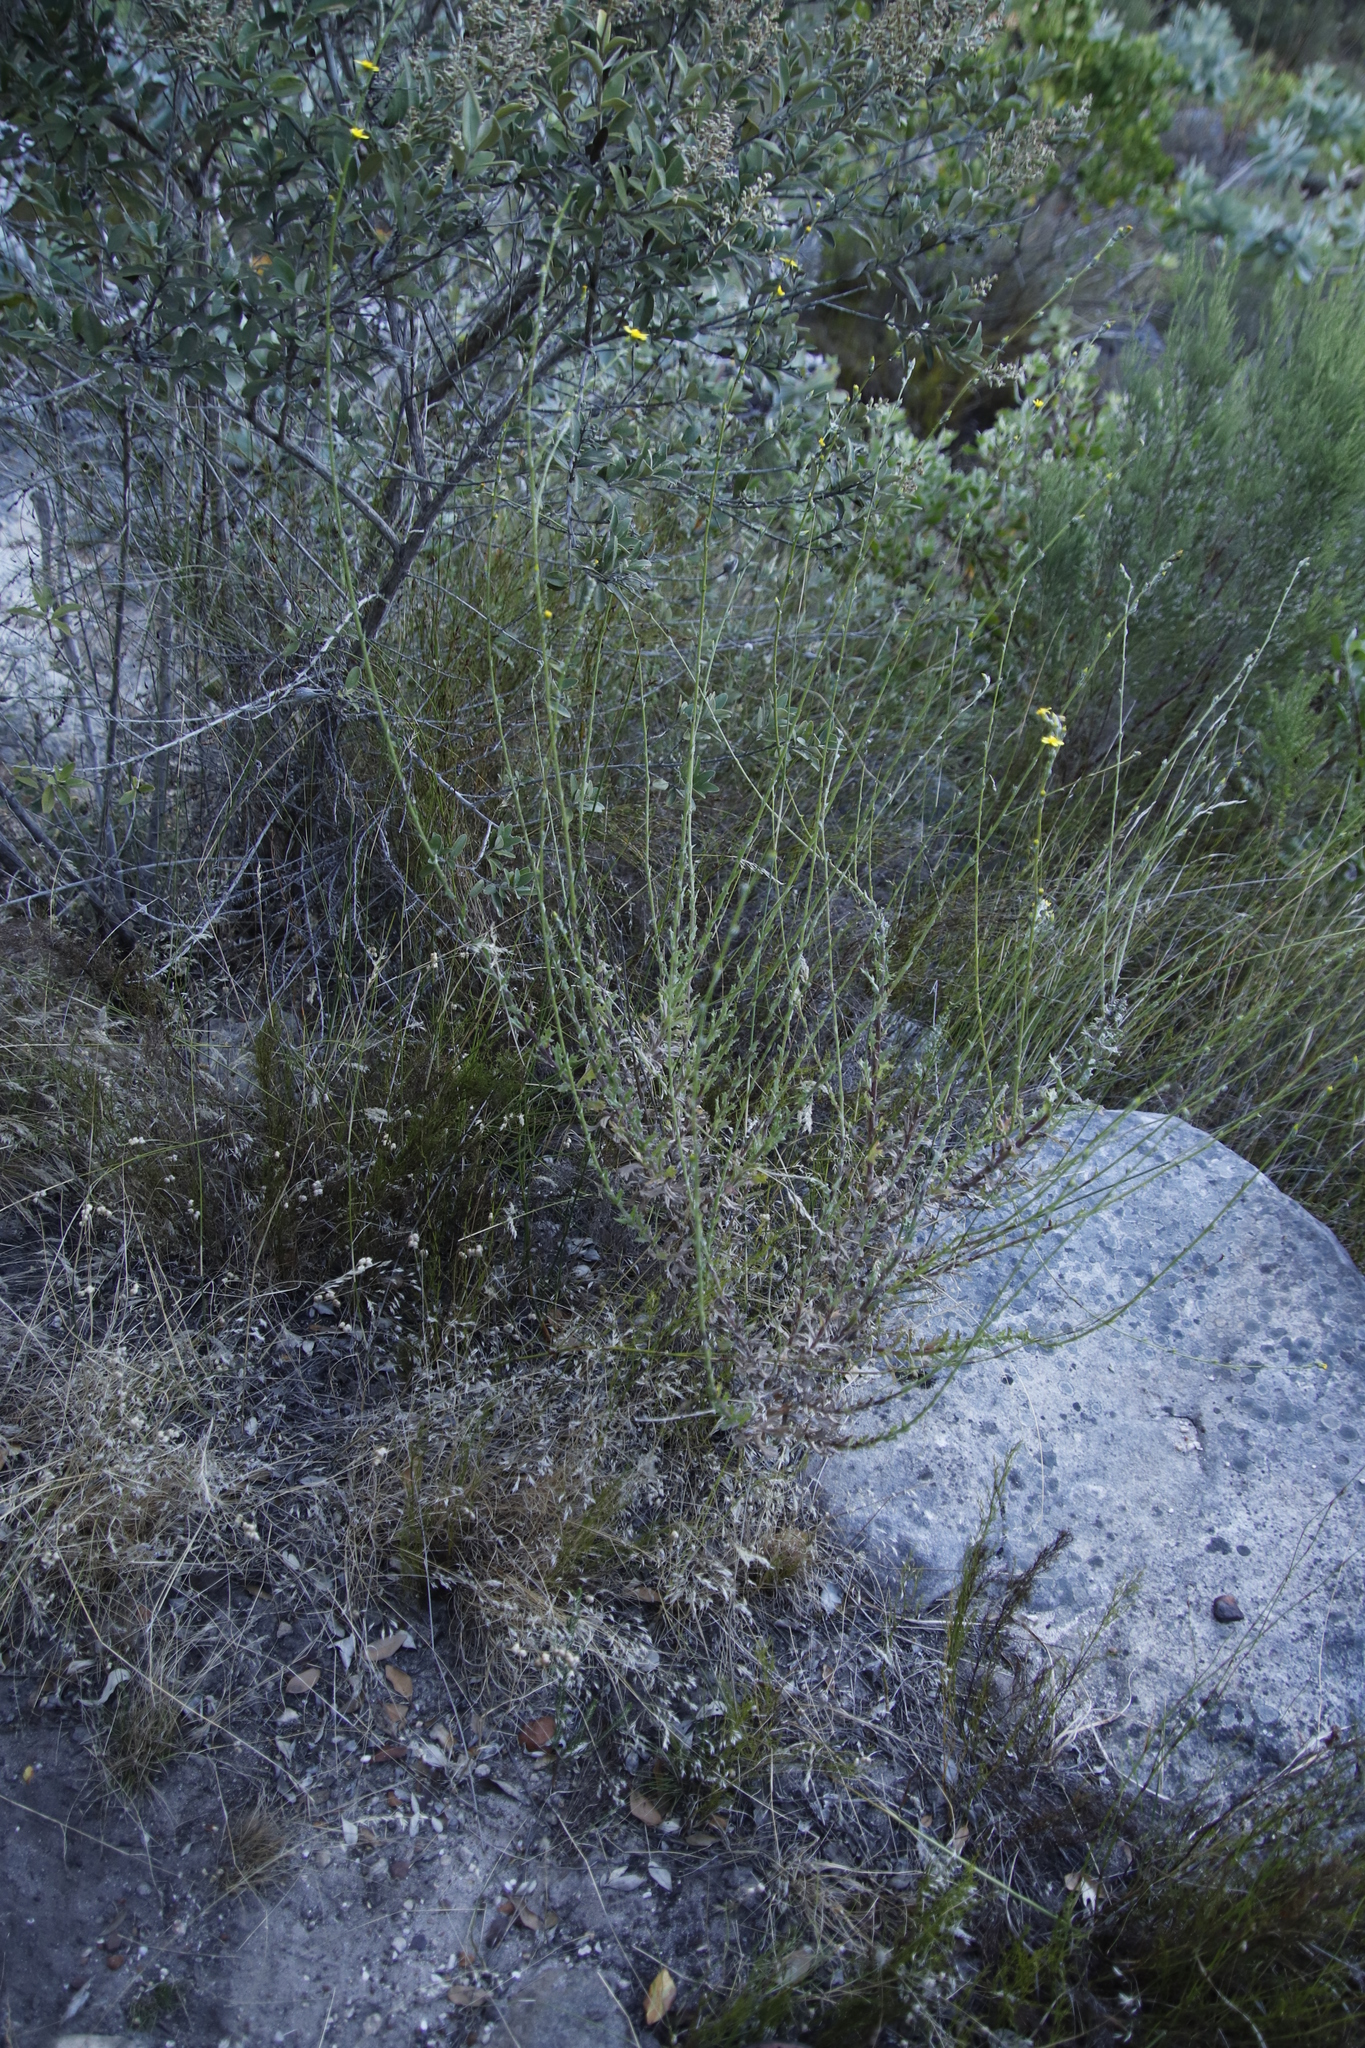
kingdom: Plantae
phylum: Tracheophyta
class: Magnoliopsida
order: Asterales
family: Asteraceae
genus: Senecio
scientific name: Senecio pubigerus
